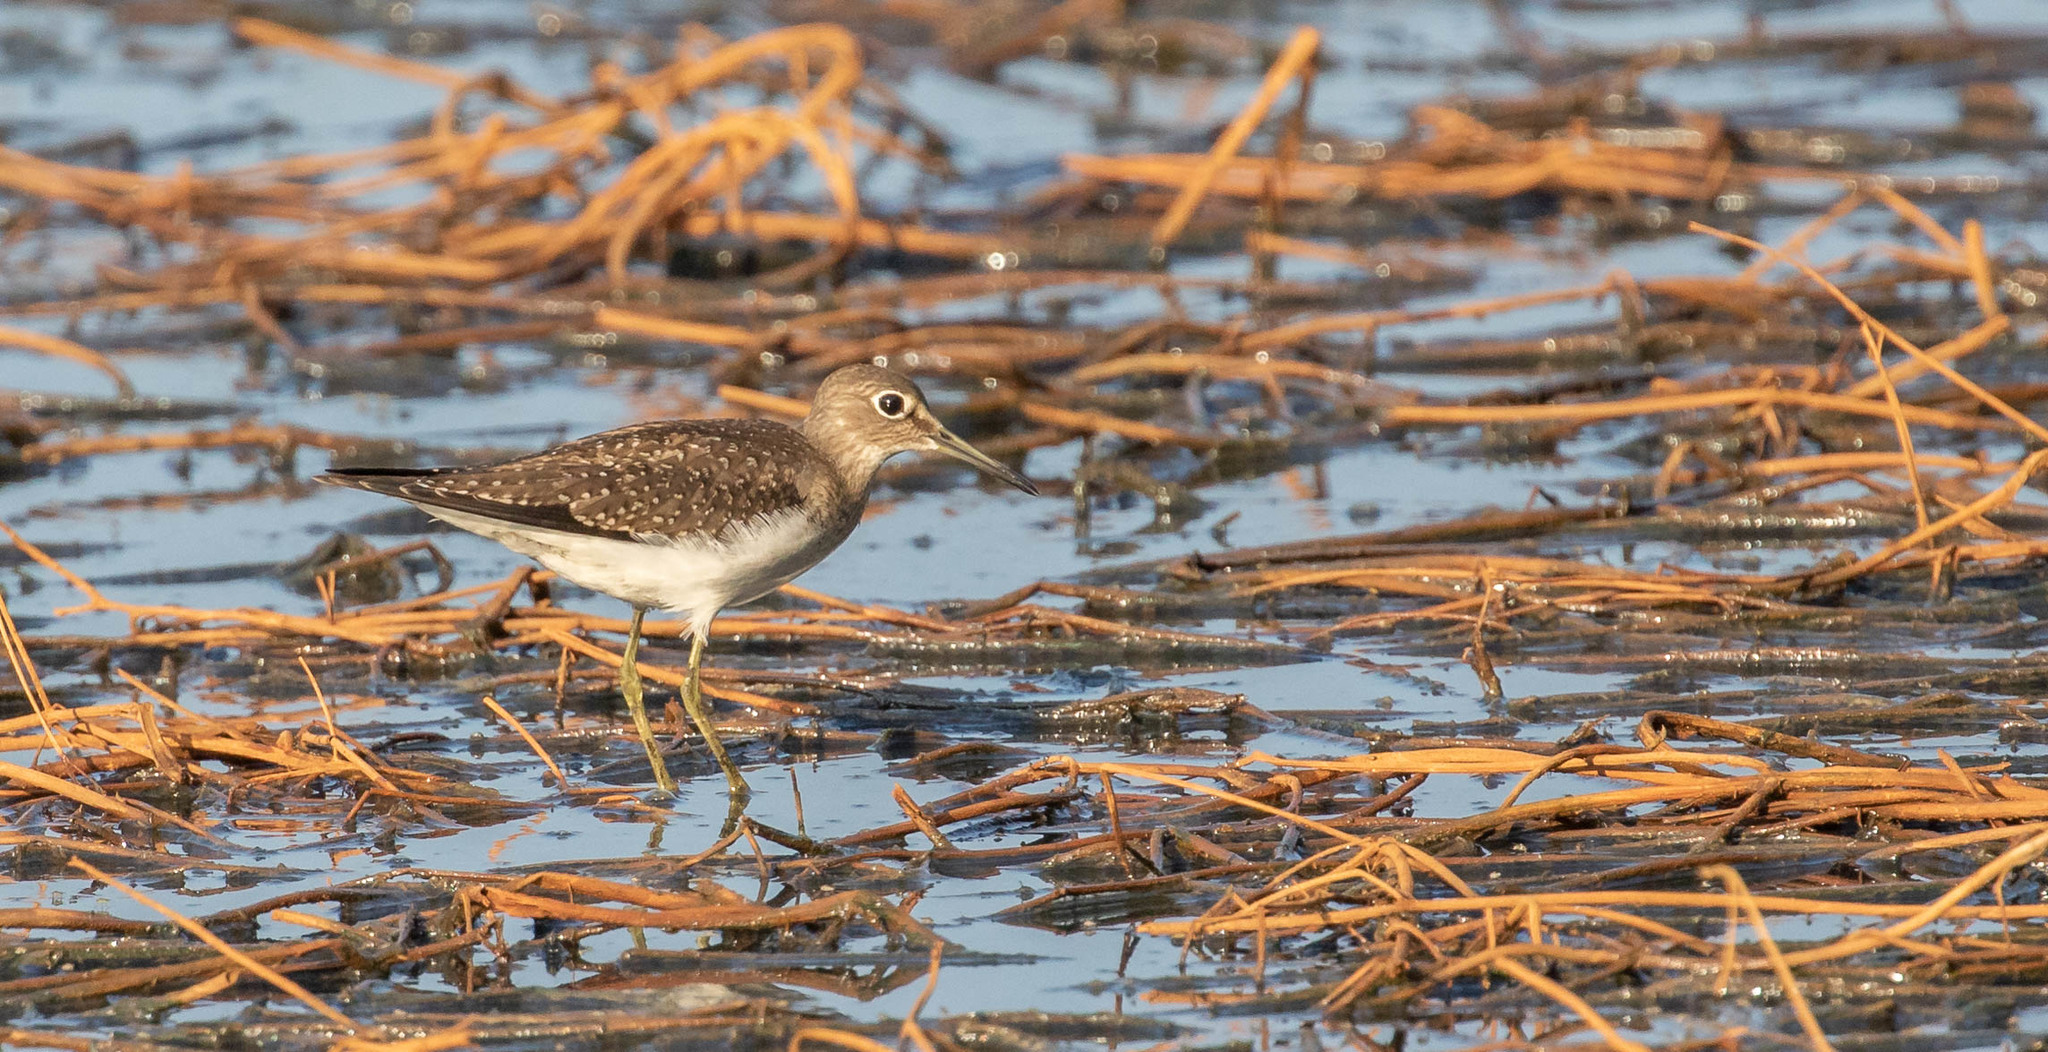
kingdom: Animalia
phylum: Chordata
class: Aves
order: Charadriiformes
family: Scolopacidae
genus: Tringa
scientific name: Tringa solitaria
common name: Solitary sandpiper
